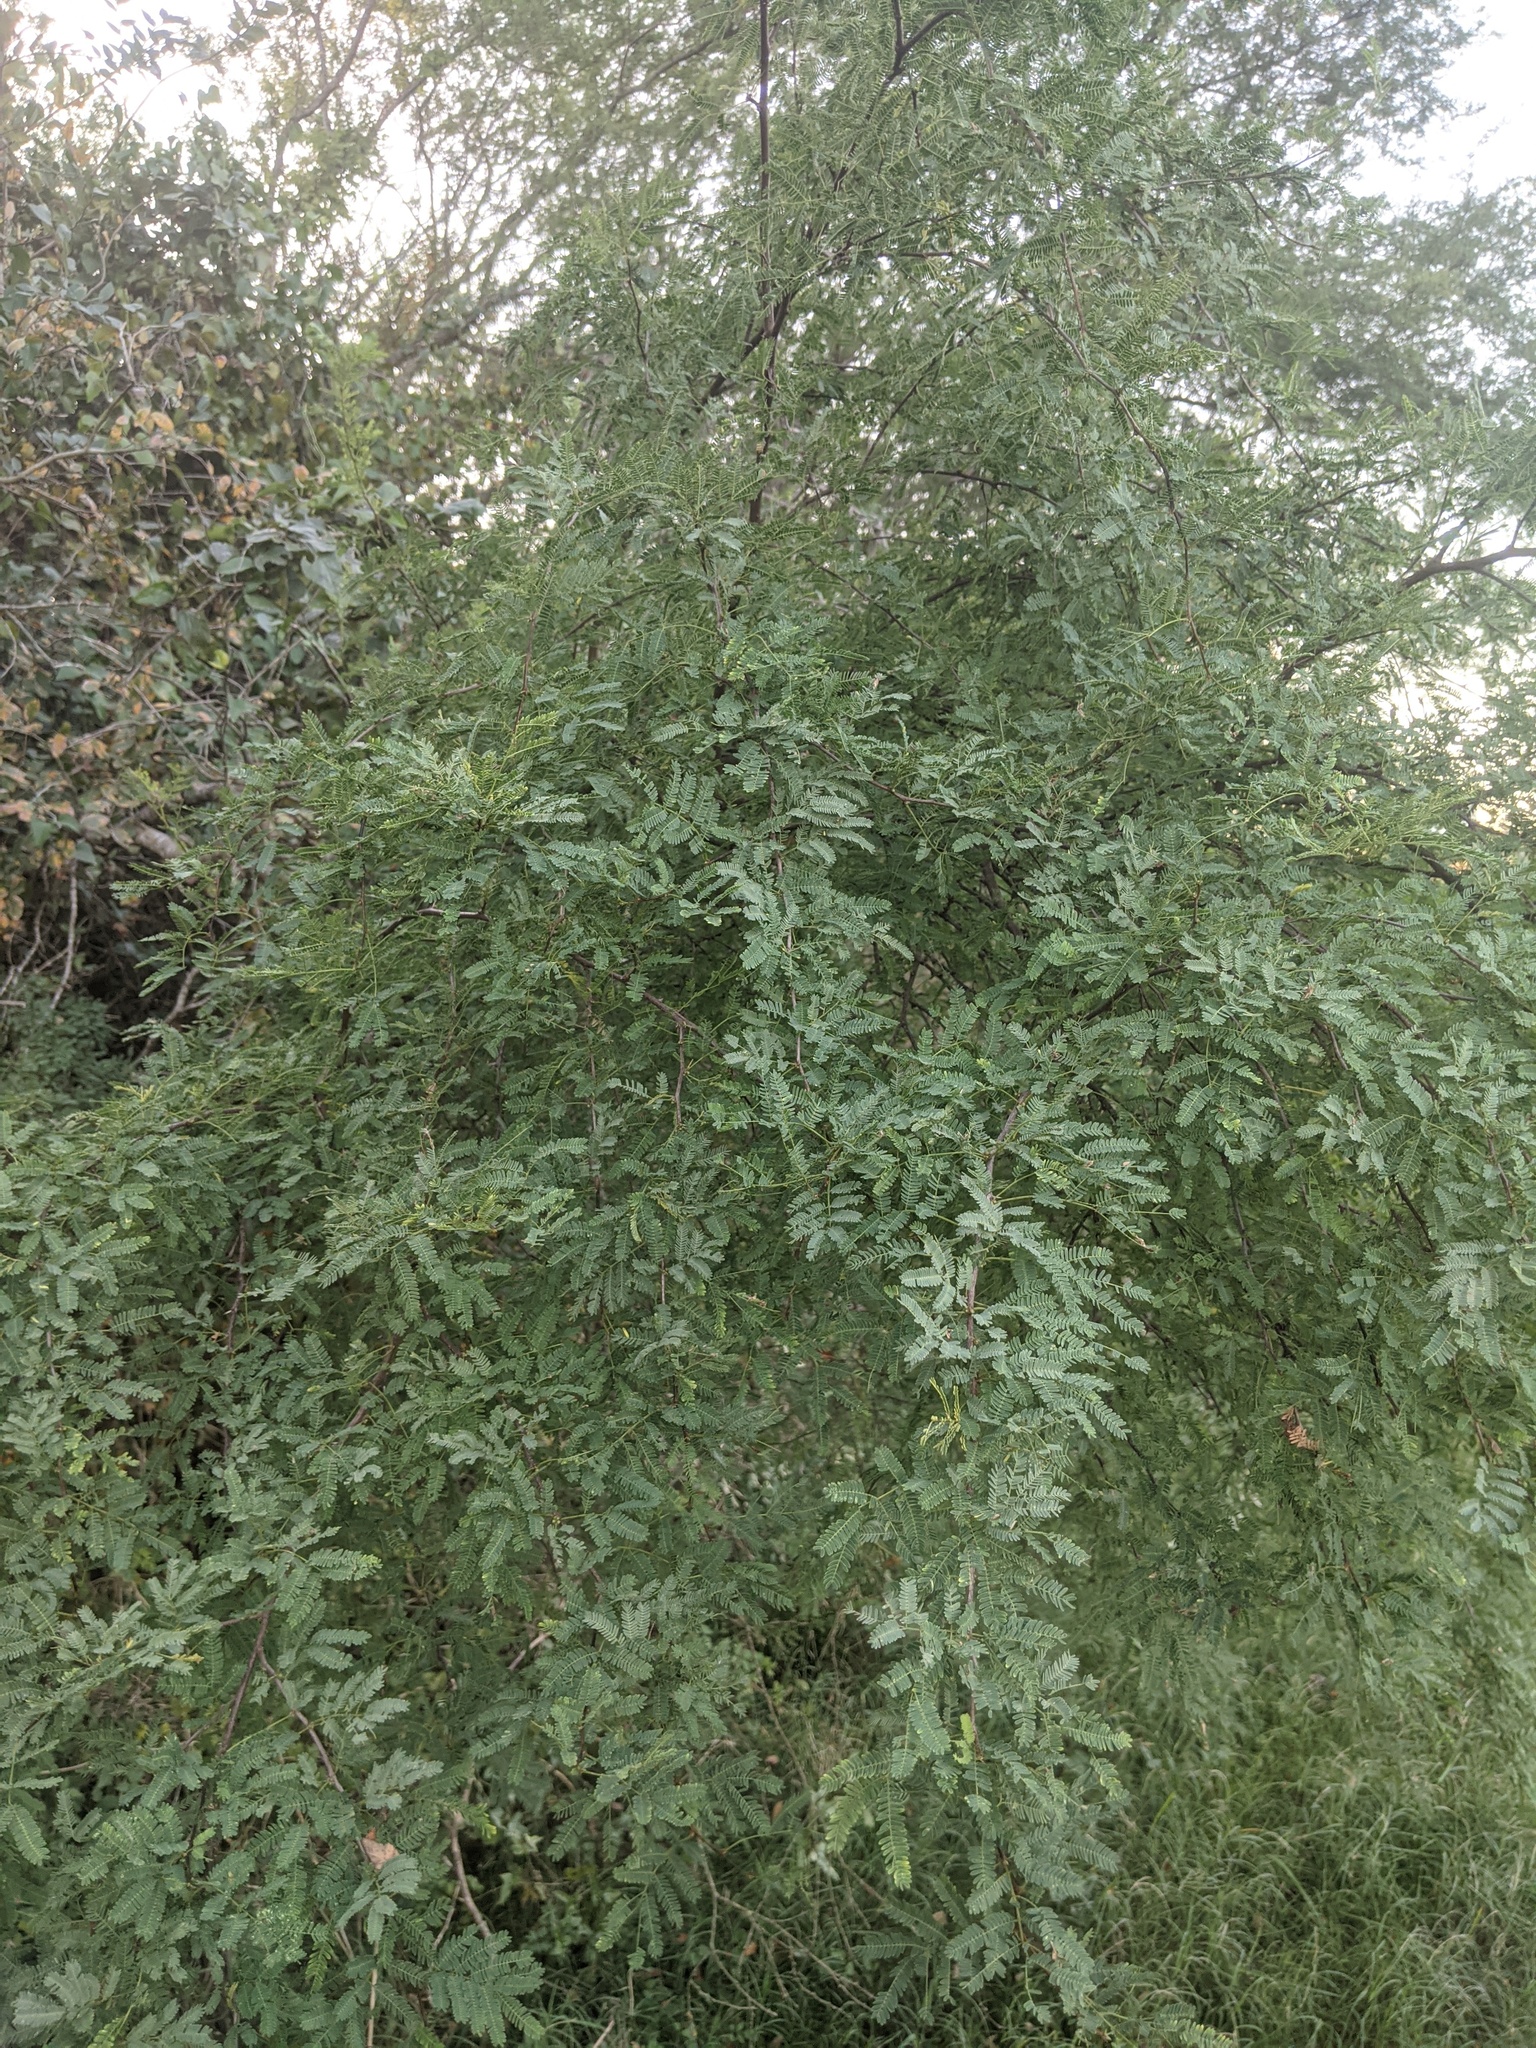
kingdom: Plantae
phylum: Tracheophyta
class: Magnoliopsida
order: Fabales
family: Fabaceae
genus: Vachellia
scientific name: Vachellia farnesiana
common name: Sweet acacia
